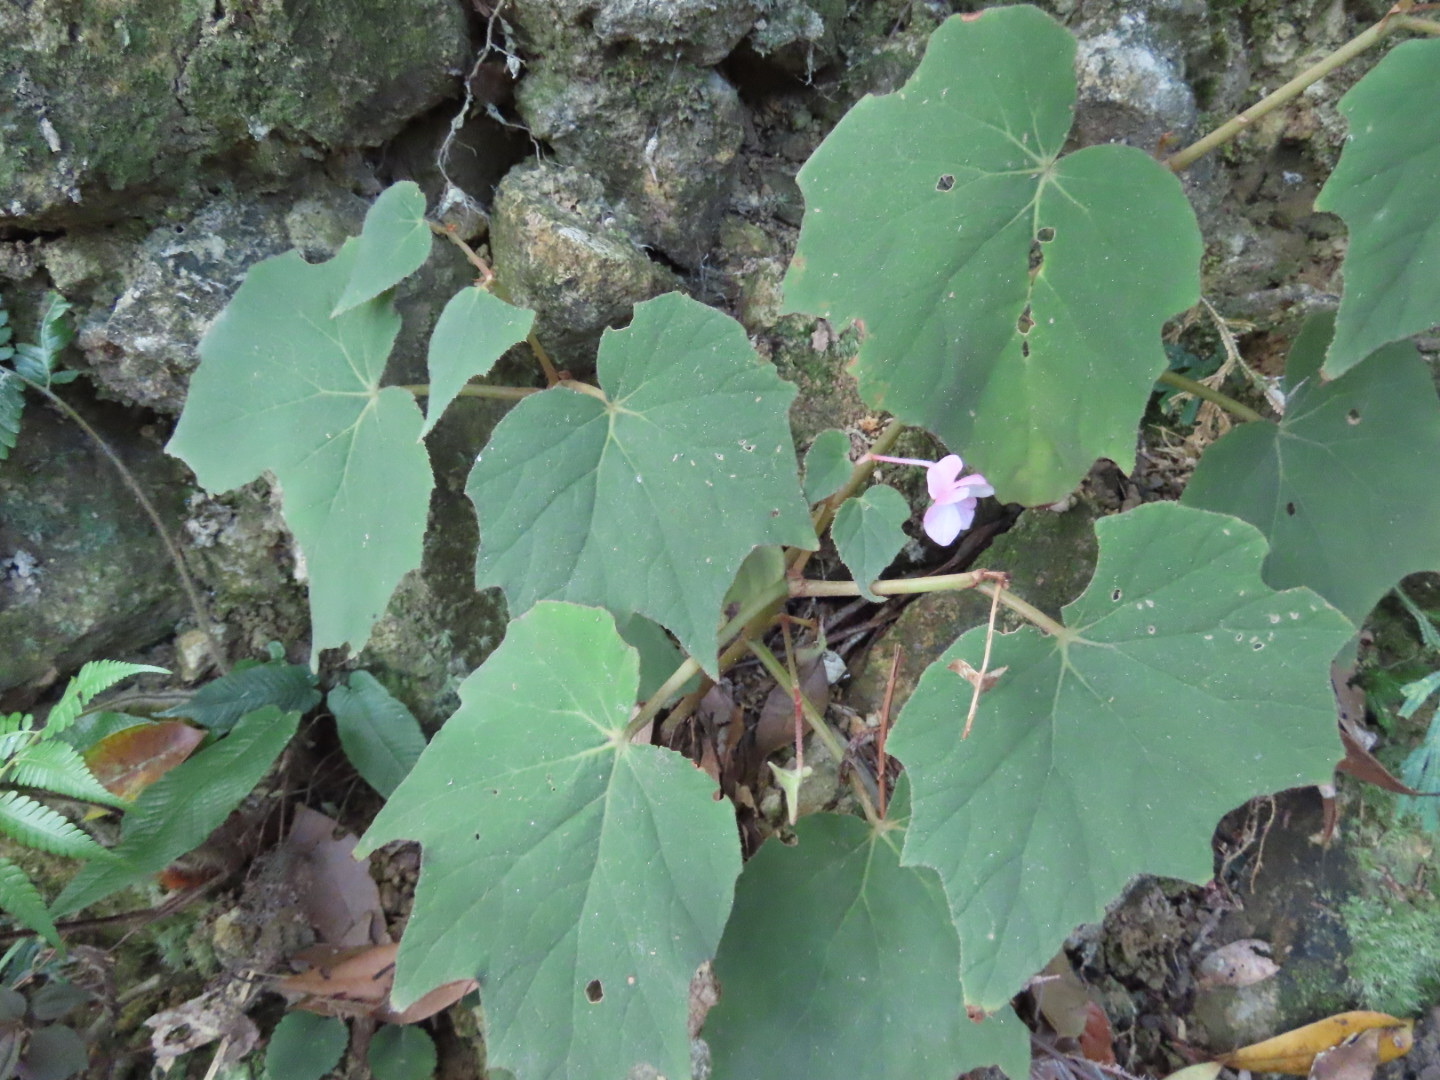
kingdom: Plantae
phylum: Tracheophyta
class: Magnoliopsida
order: Cucurbitales
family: Begoniaceae
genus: Begonia
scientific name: Begonia palmata
